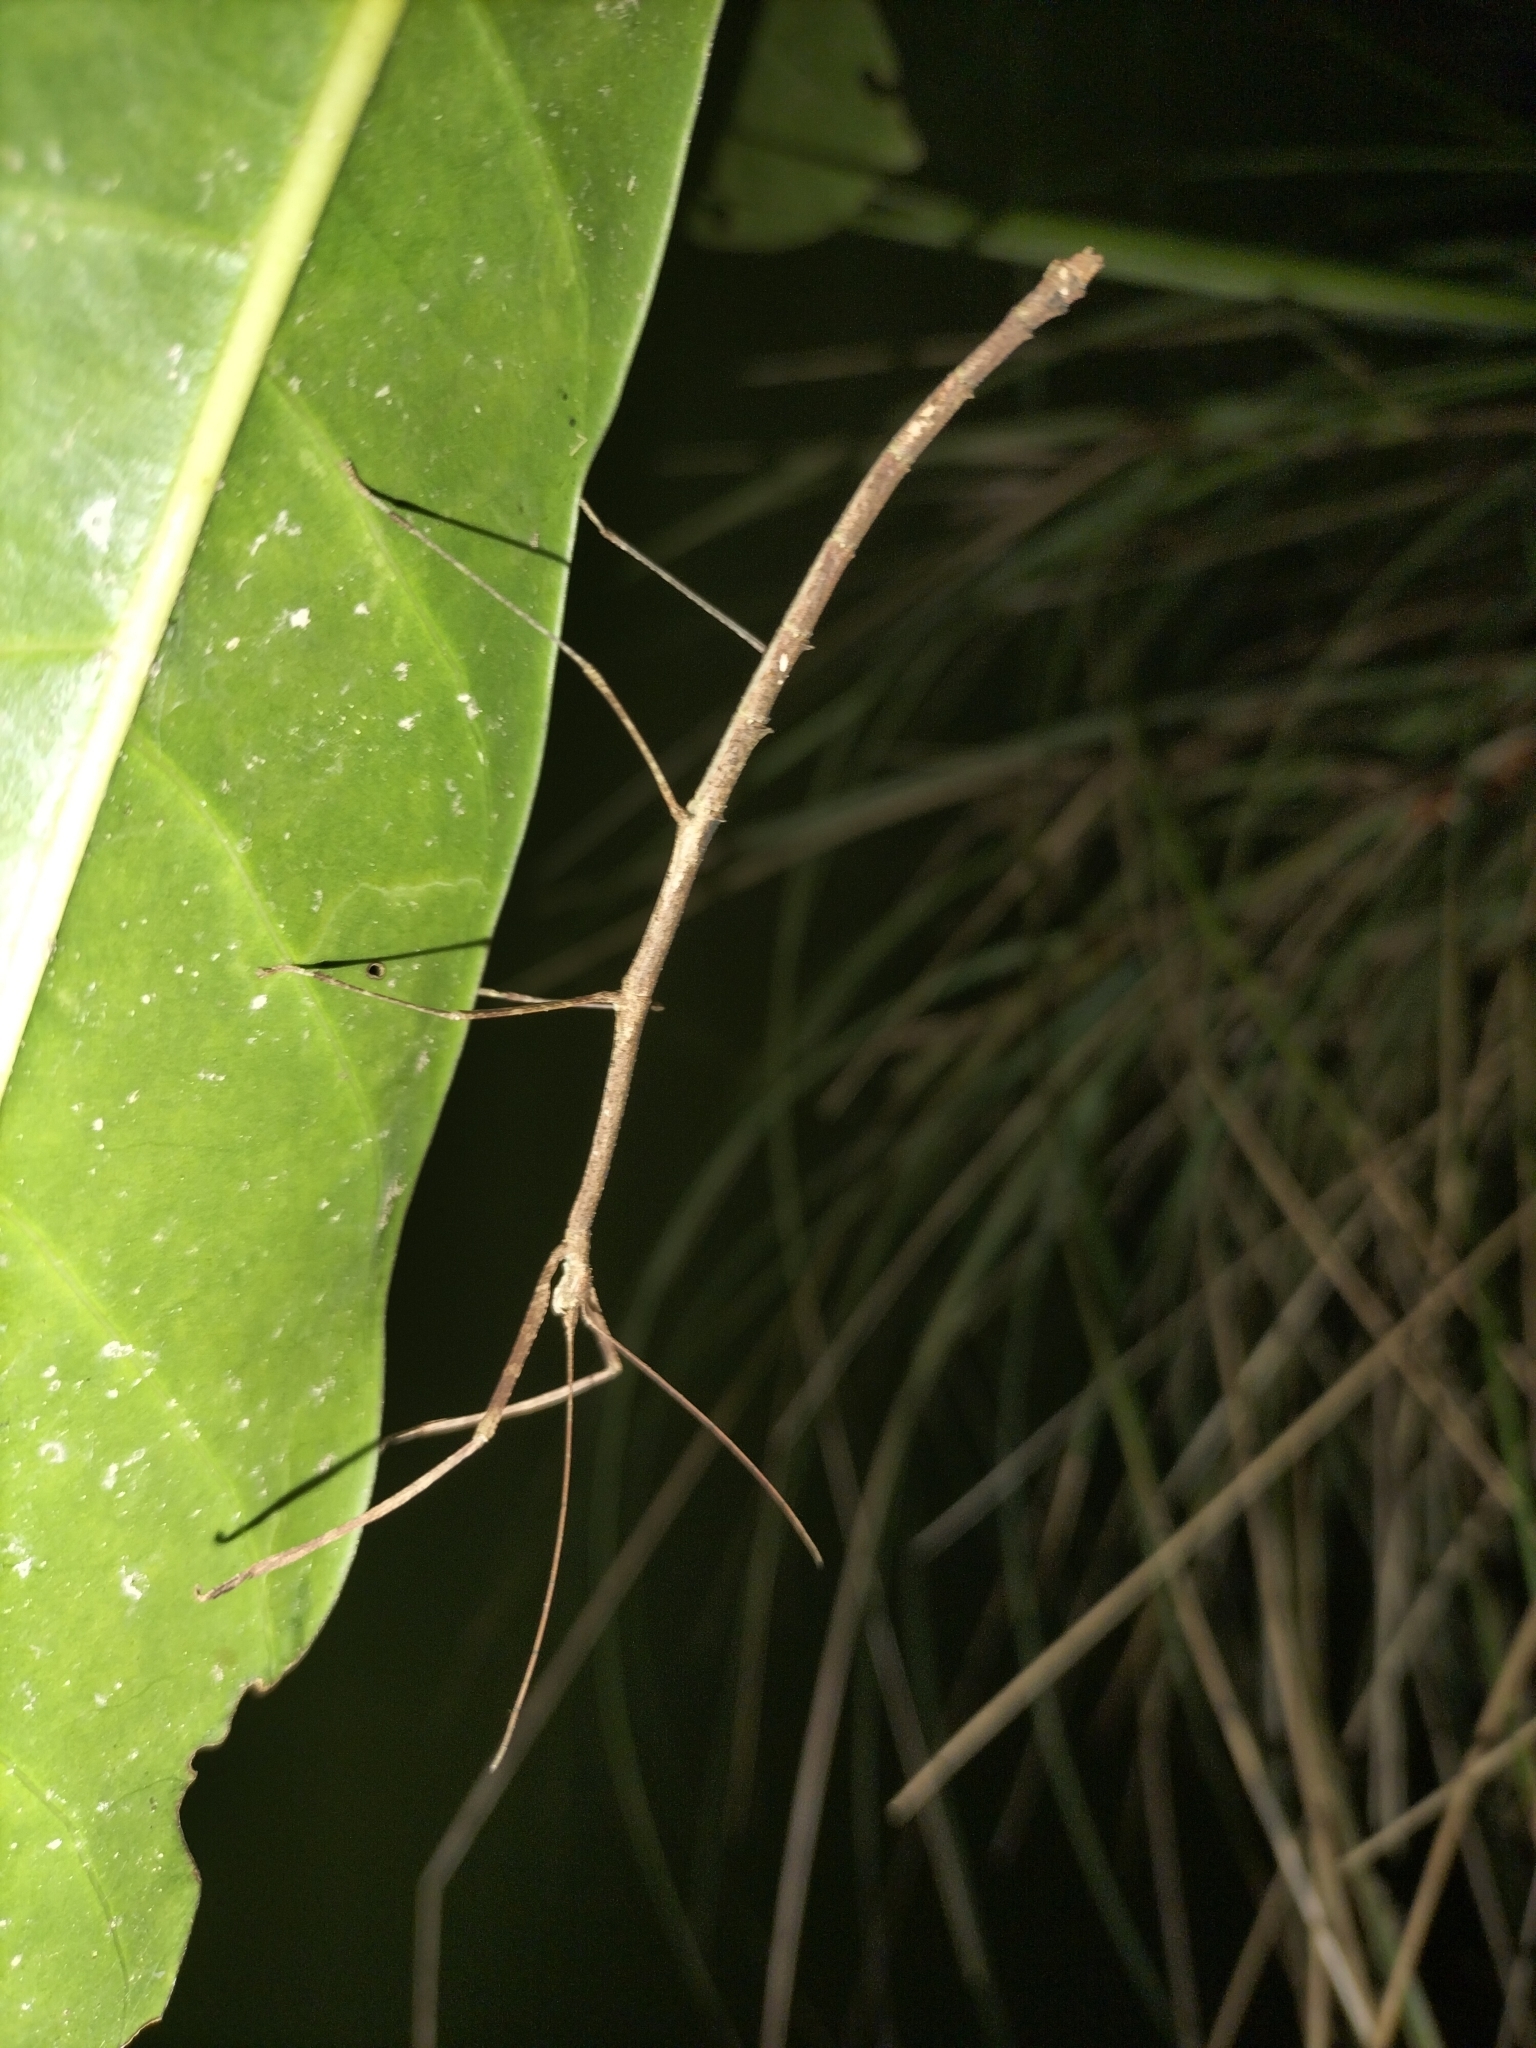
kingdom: Animalia
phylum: Arthropoda
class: Insecta
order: Phasmida
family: Lonchodidae
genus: Austrocarausius
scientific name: Austrocarausius
